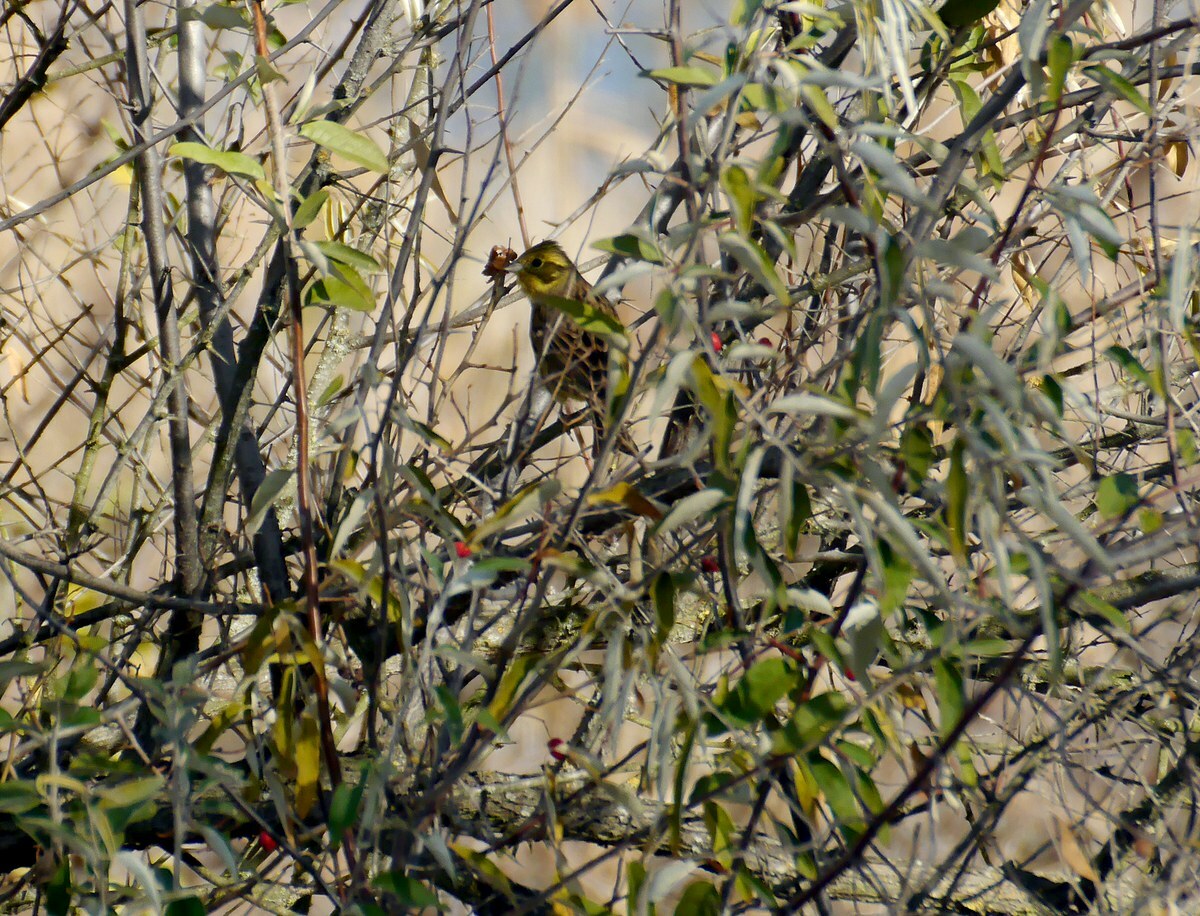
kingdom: Animalia
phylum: Chordata
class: Aves
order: Passeriformes
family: Emberizidae
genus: Emberiza
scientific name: Emberiza citrinella
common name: Yellowhammer
